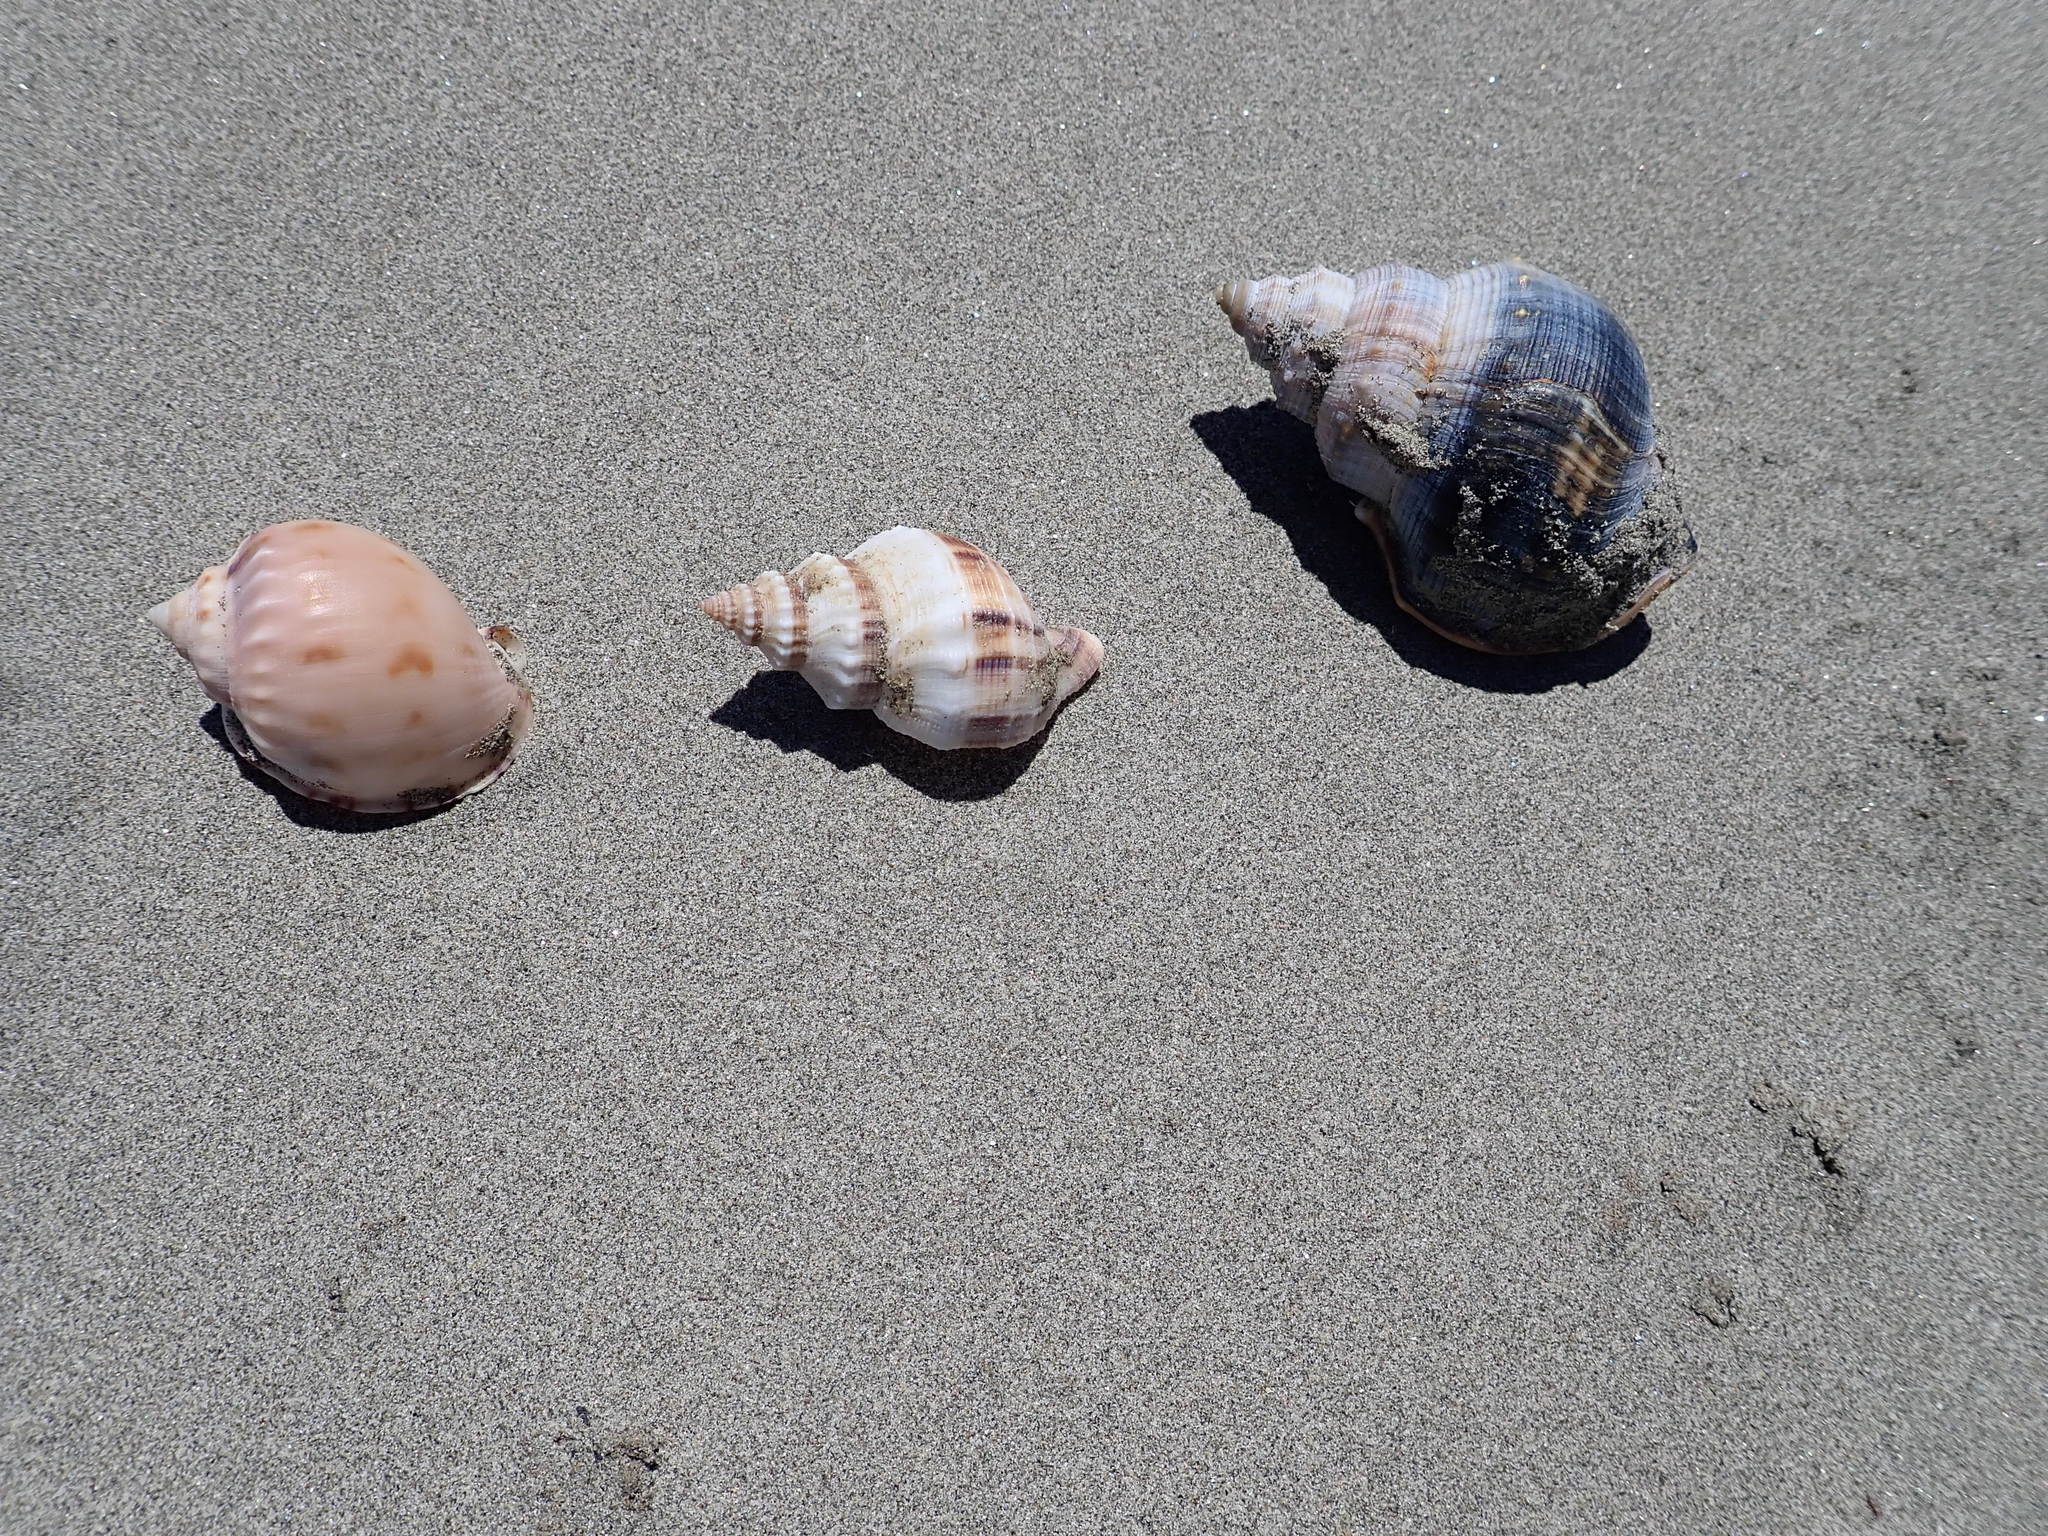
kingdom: Animalia
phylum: Mollusca
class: Gastropoda
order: Littorinimorpha
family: Cassidae
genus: Semicassis
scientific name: Semicassis pyrum
